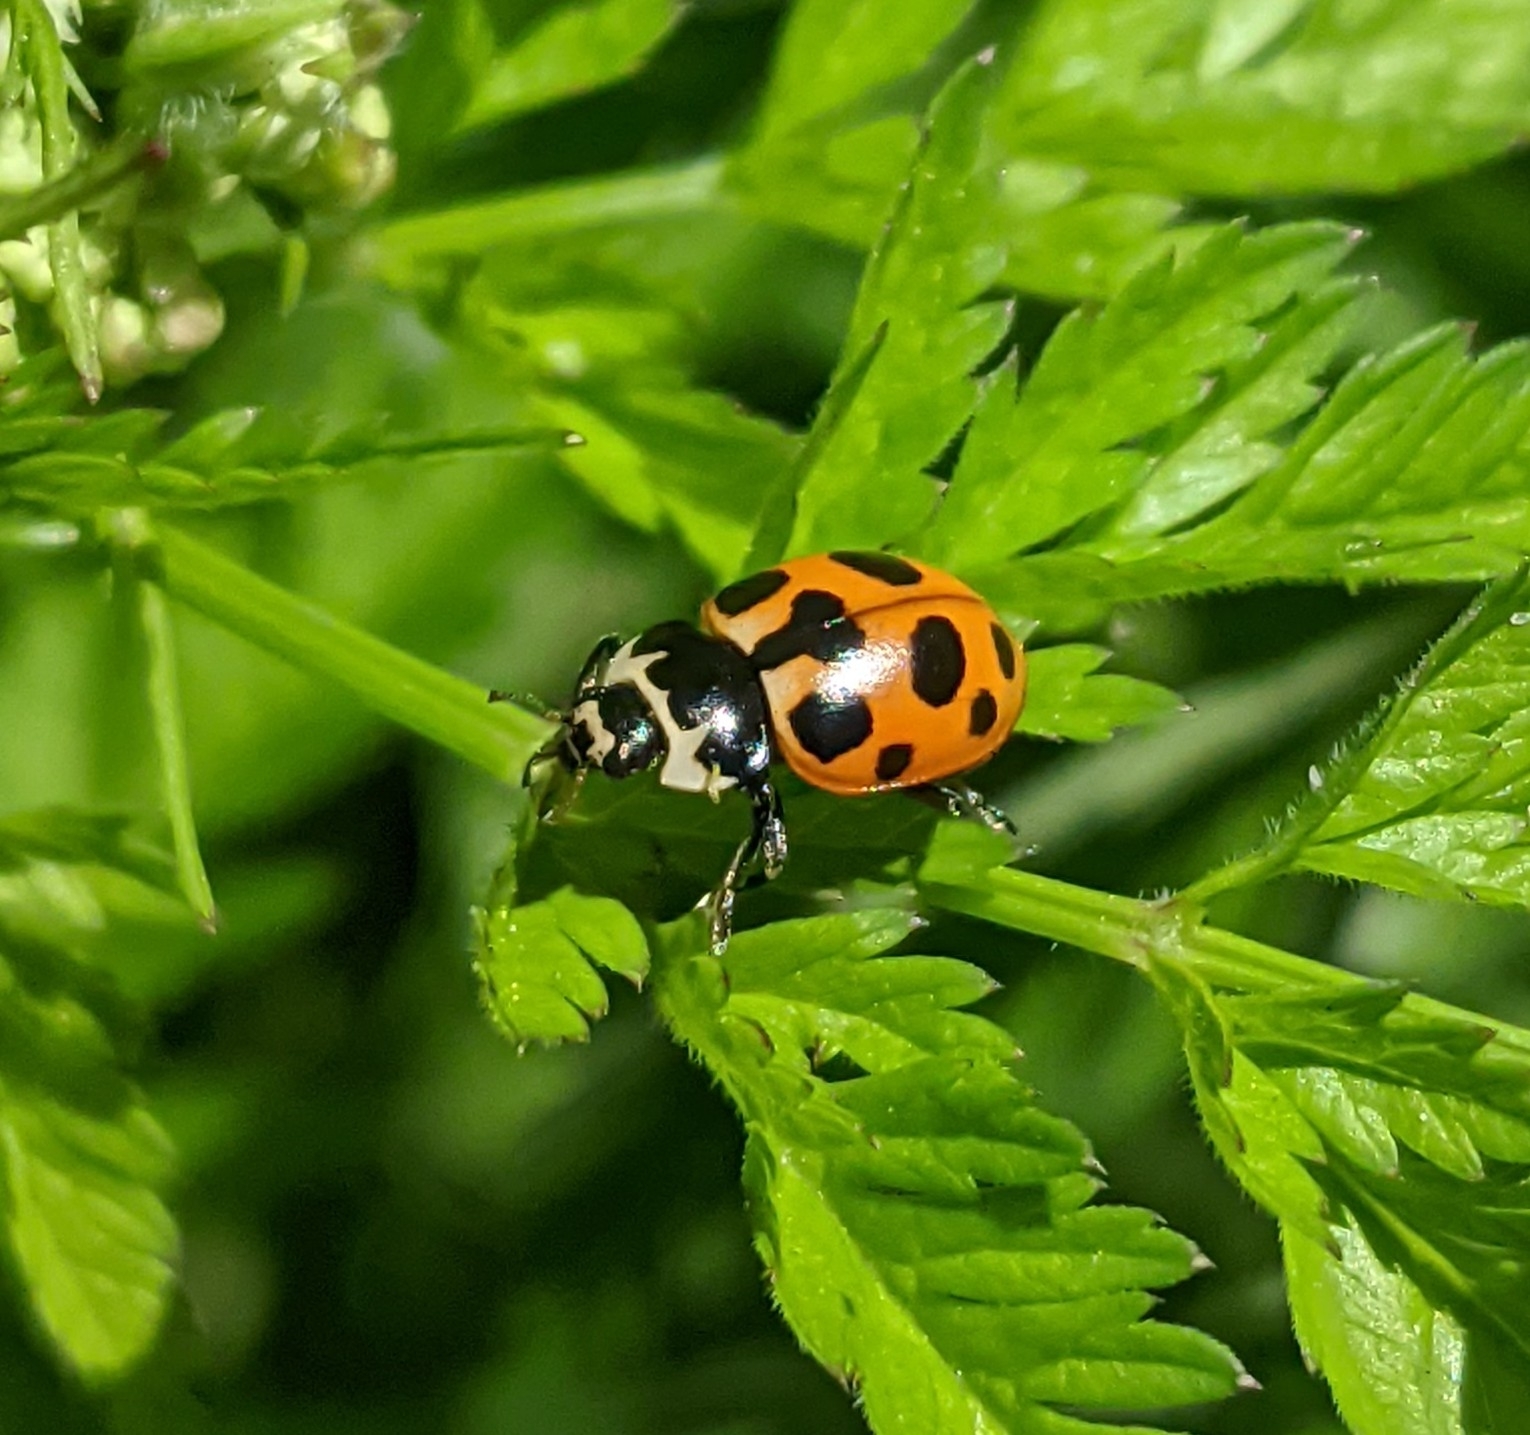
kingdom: Animalia
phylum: Arthropoda
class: Insecta
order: Coleoptera
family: Coccinellidae
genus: Ceratomegilla
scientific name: Ceratomegilla notata
